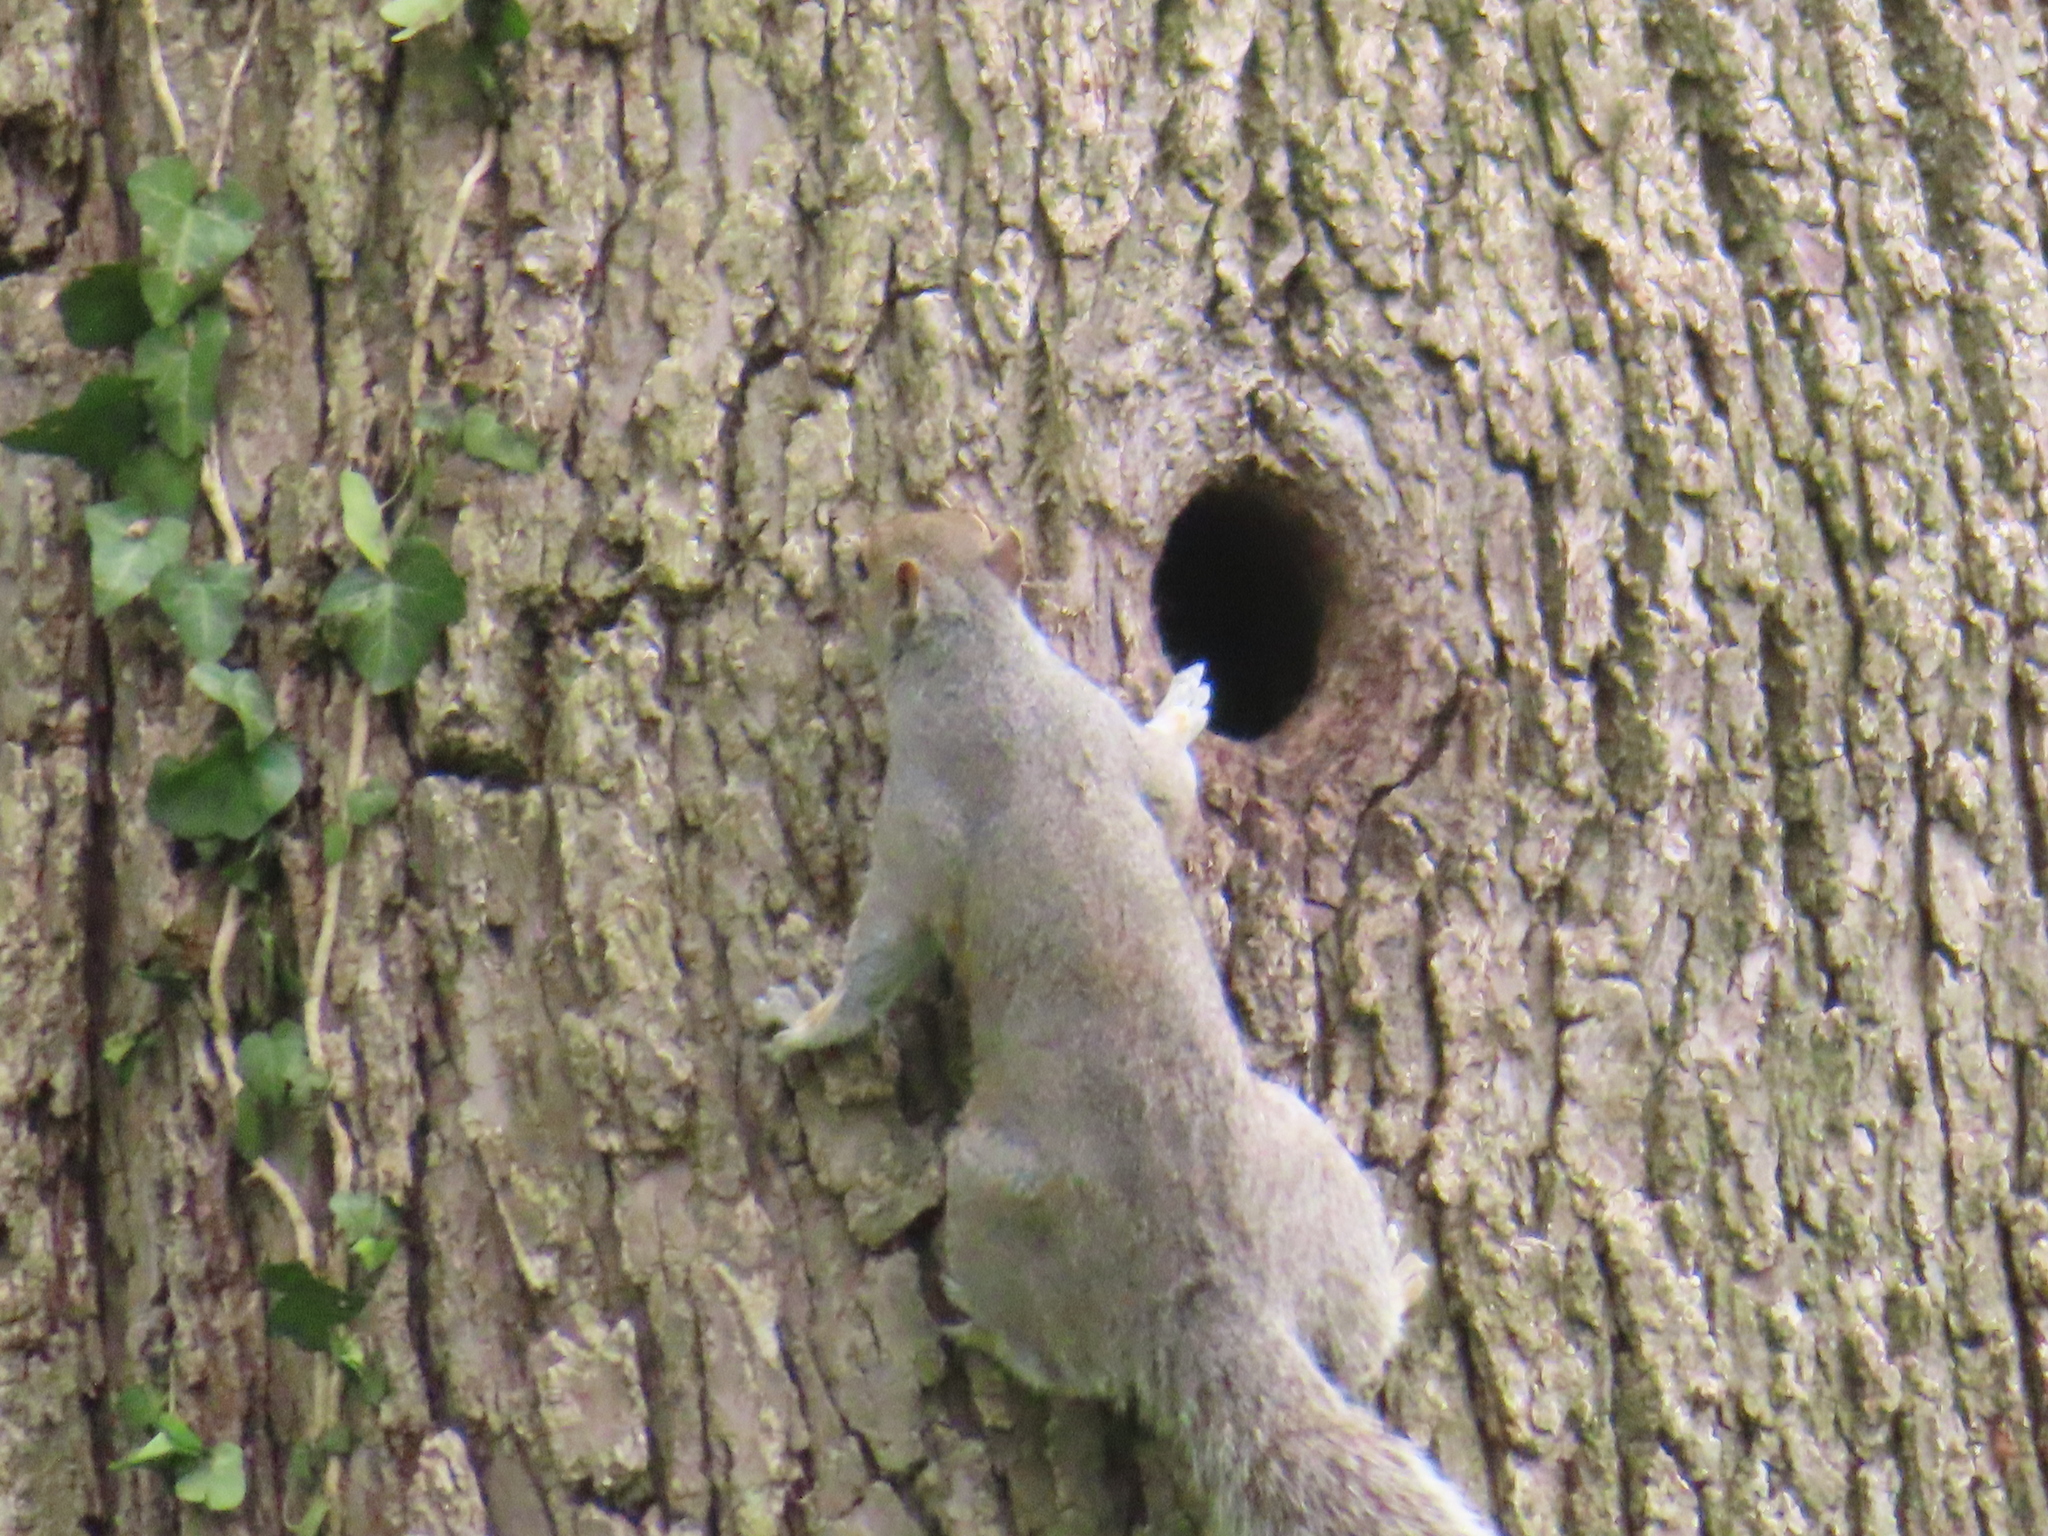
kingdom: Animalia
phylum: Chordata
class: Mammalia
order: Rodentia
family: Sciuridae
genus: Sciurus
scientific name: Sciurus carolinensis
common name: Eastern gray squirrel
